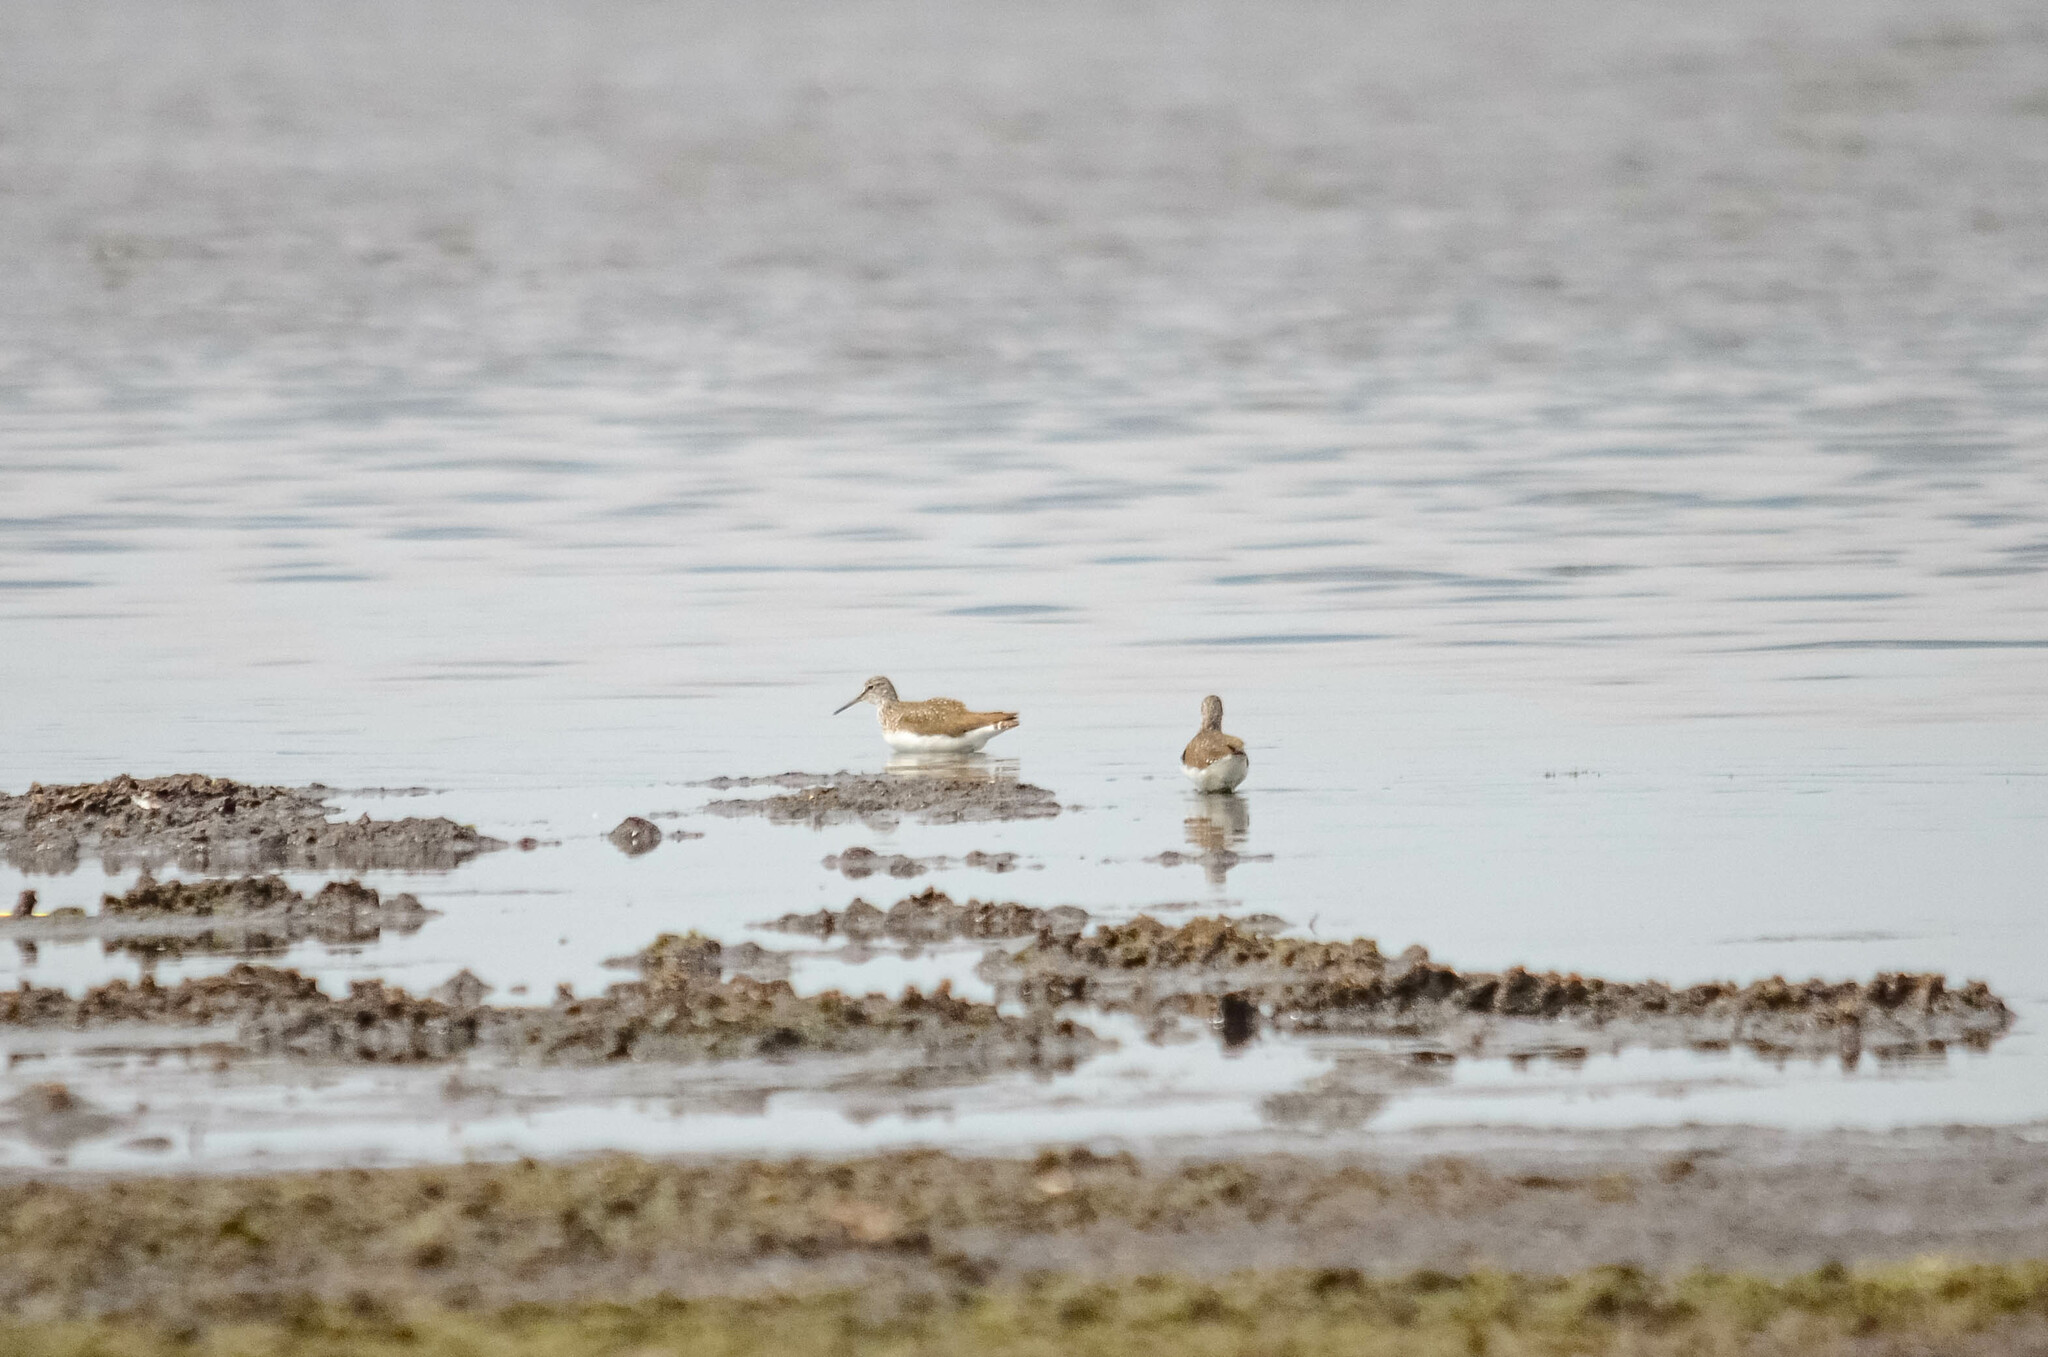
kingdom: Animalia
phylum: Chordata
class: Aves
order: Charadriiformes
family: Scolopacidae
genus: Tringa
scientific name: Tringa ochropus
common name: Green sandpiper
